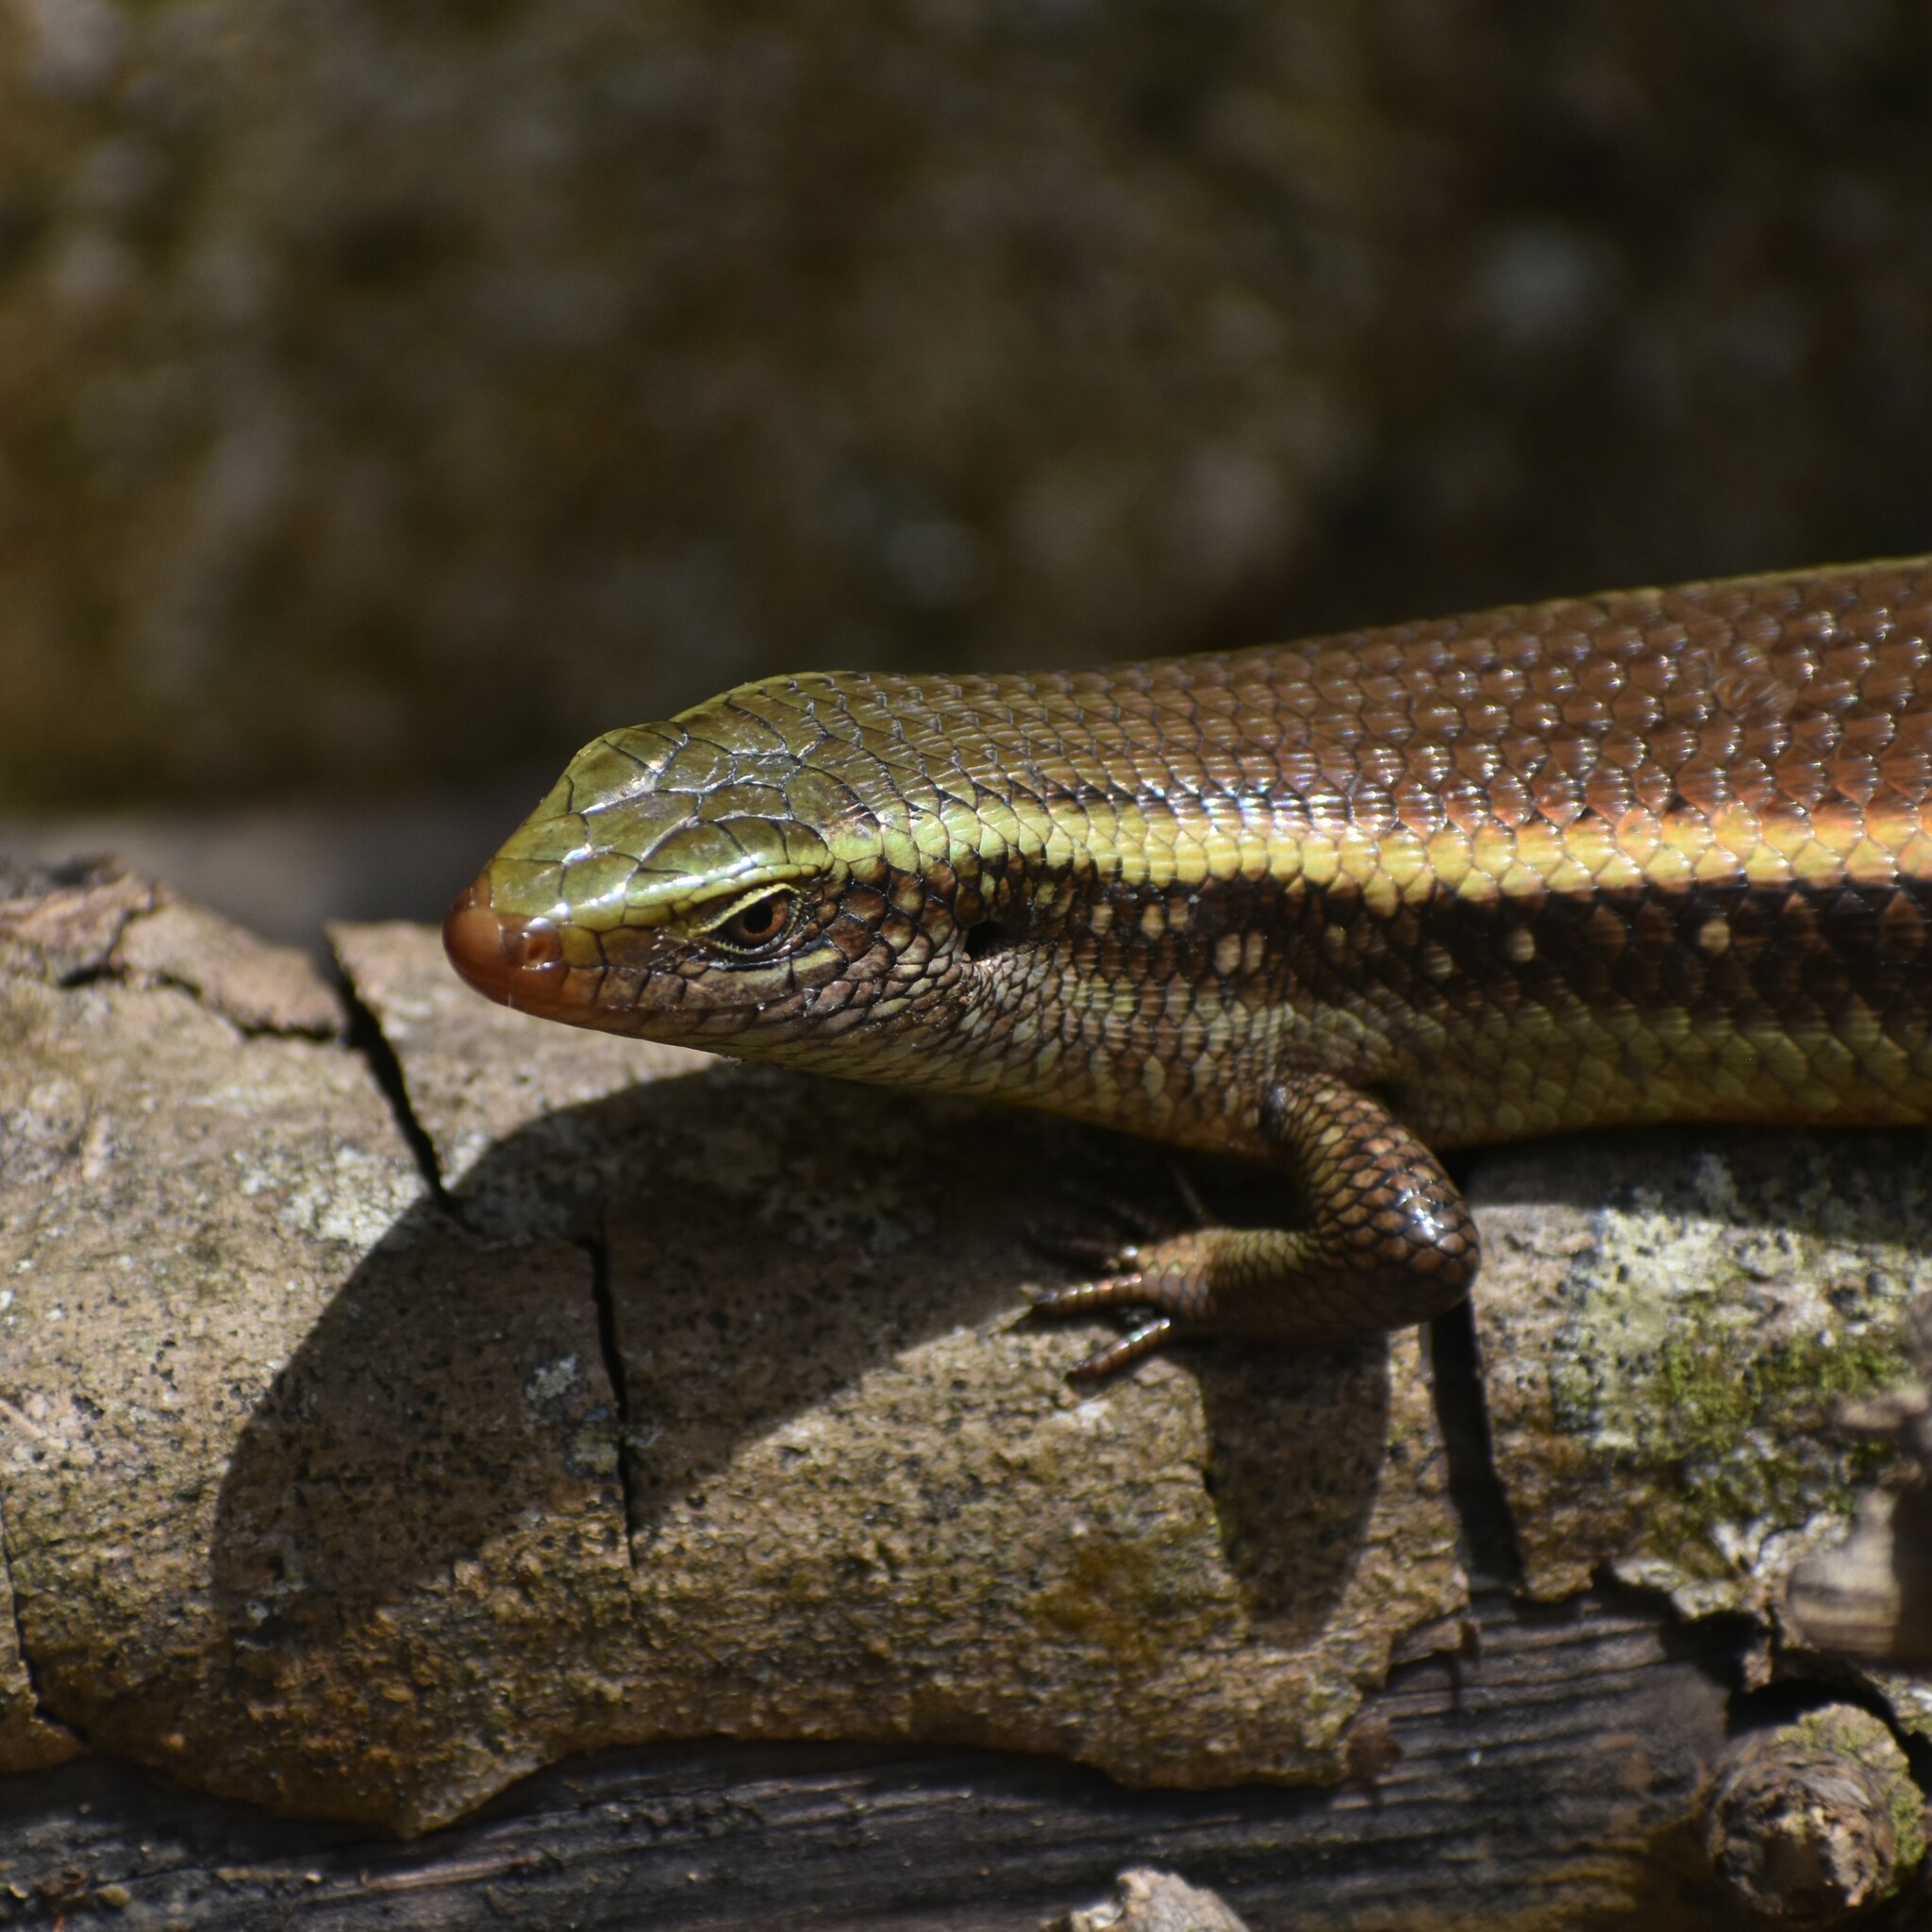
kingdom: Animalia
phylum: Chordata
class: Squamata
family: Scincidae
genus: Eutropis
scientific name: Eutropis carinata
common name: Keeled indian mabuya
